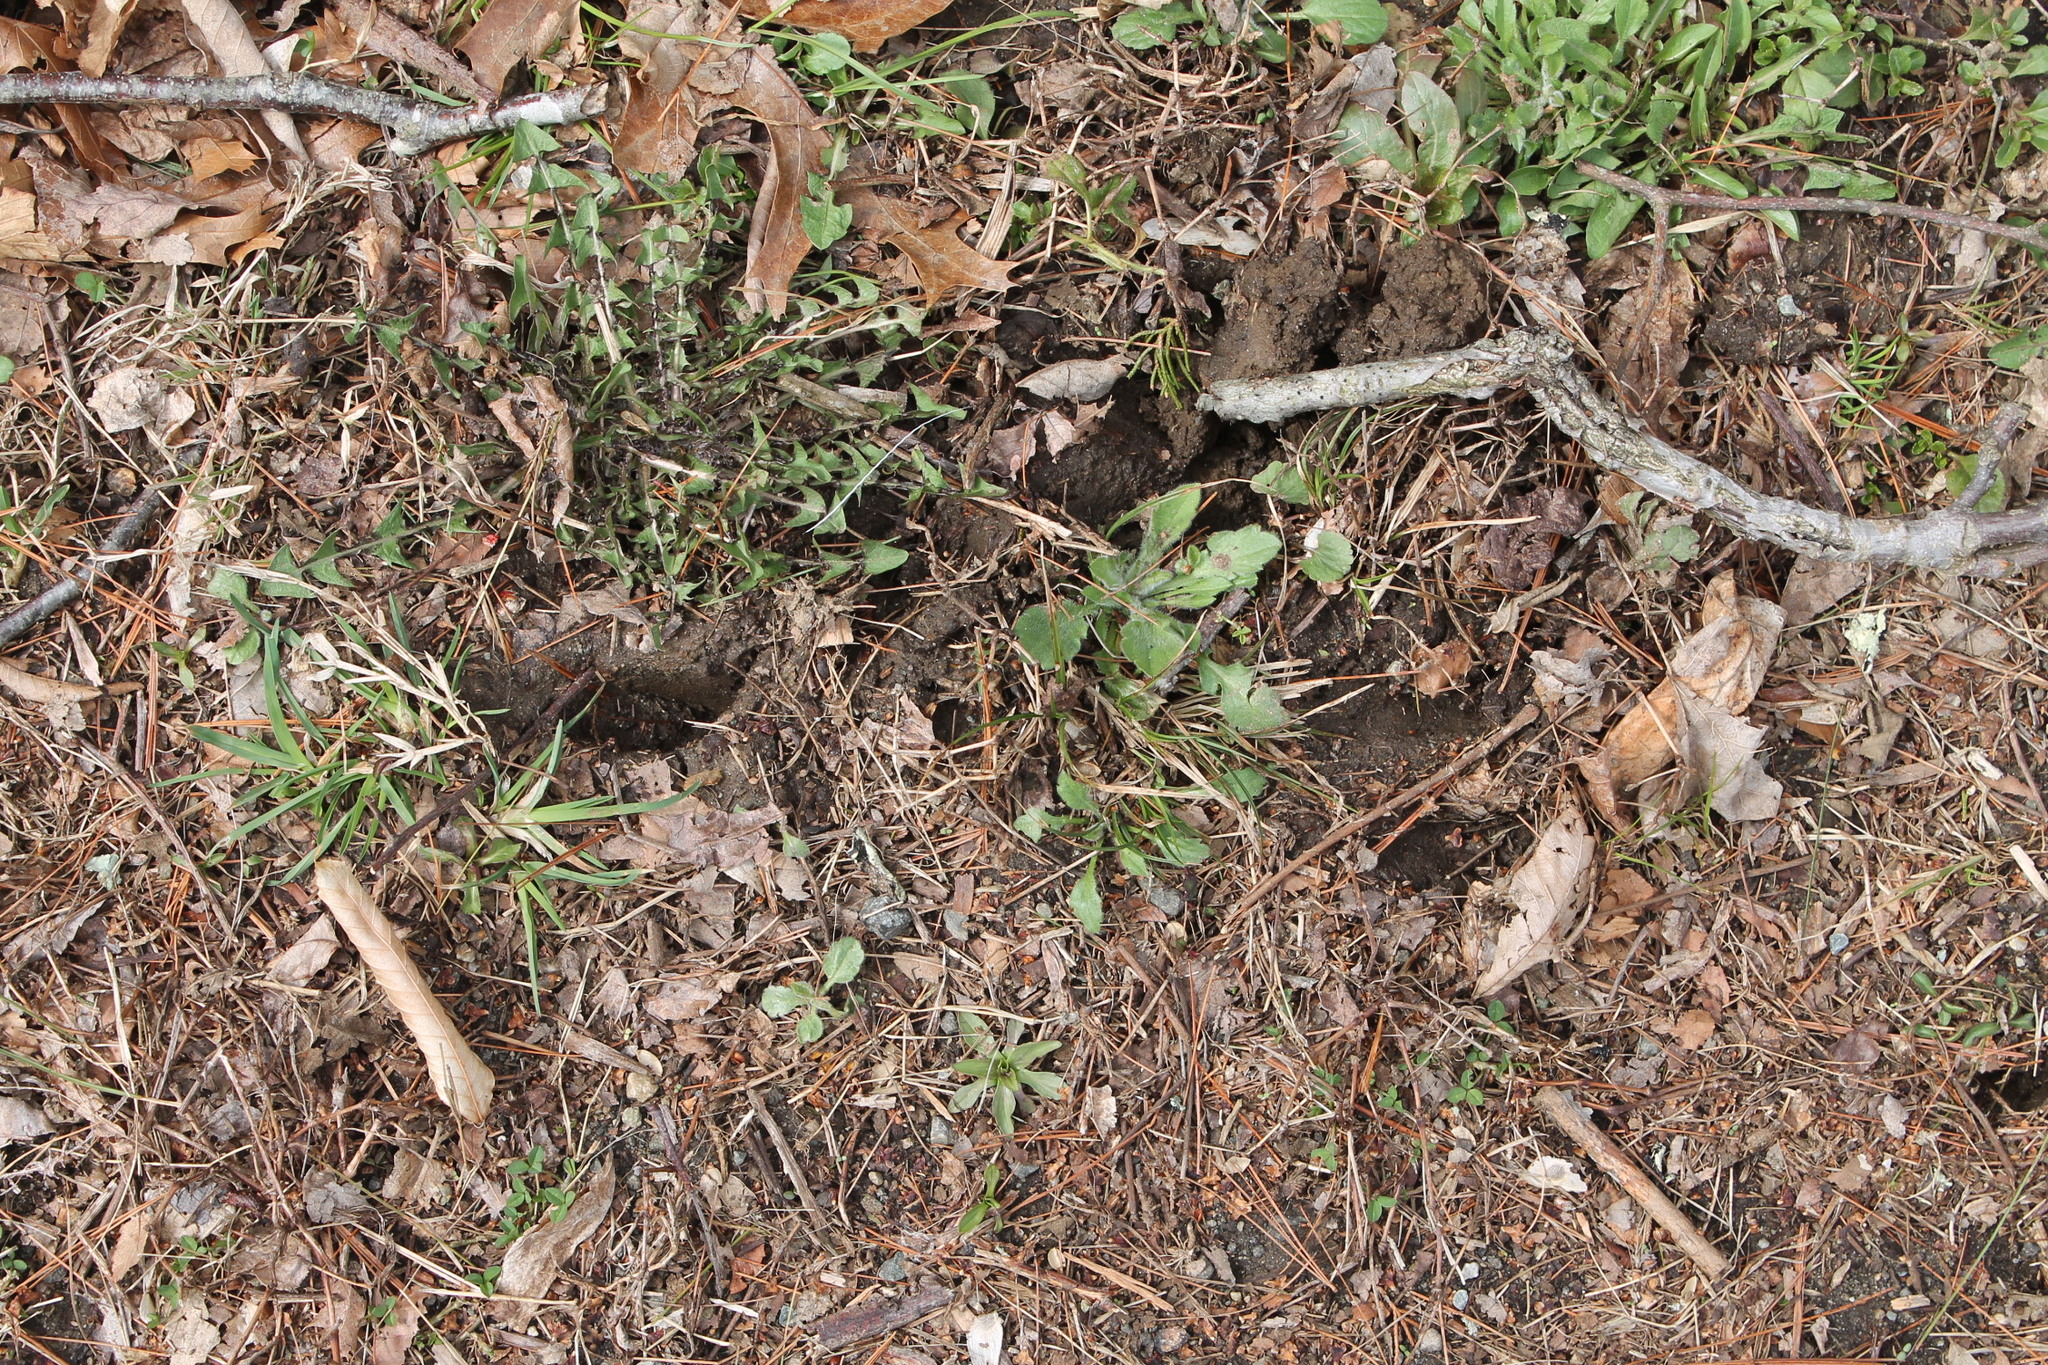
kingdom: Animalia
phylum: Chordata
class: Mammalia
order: Artiodactyla
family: Cervidae
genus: Odocoileus
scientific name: Odocoileus virginianus
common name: White-tailed deer
